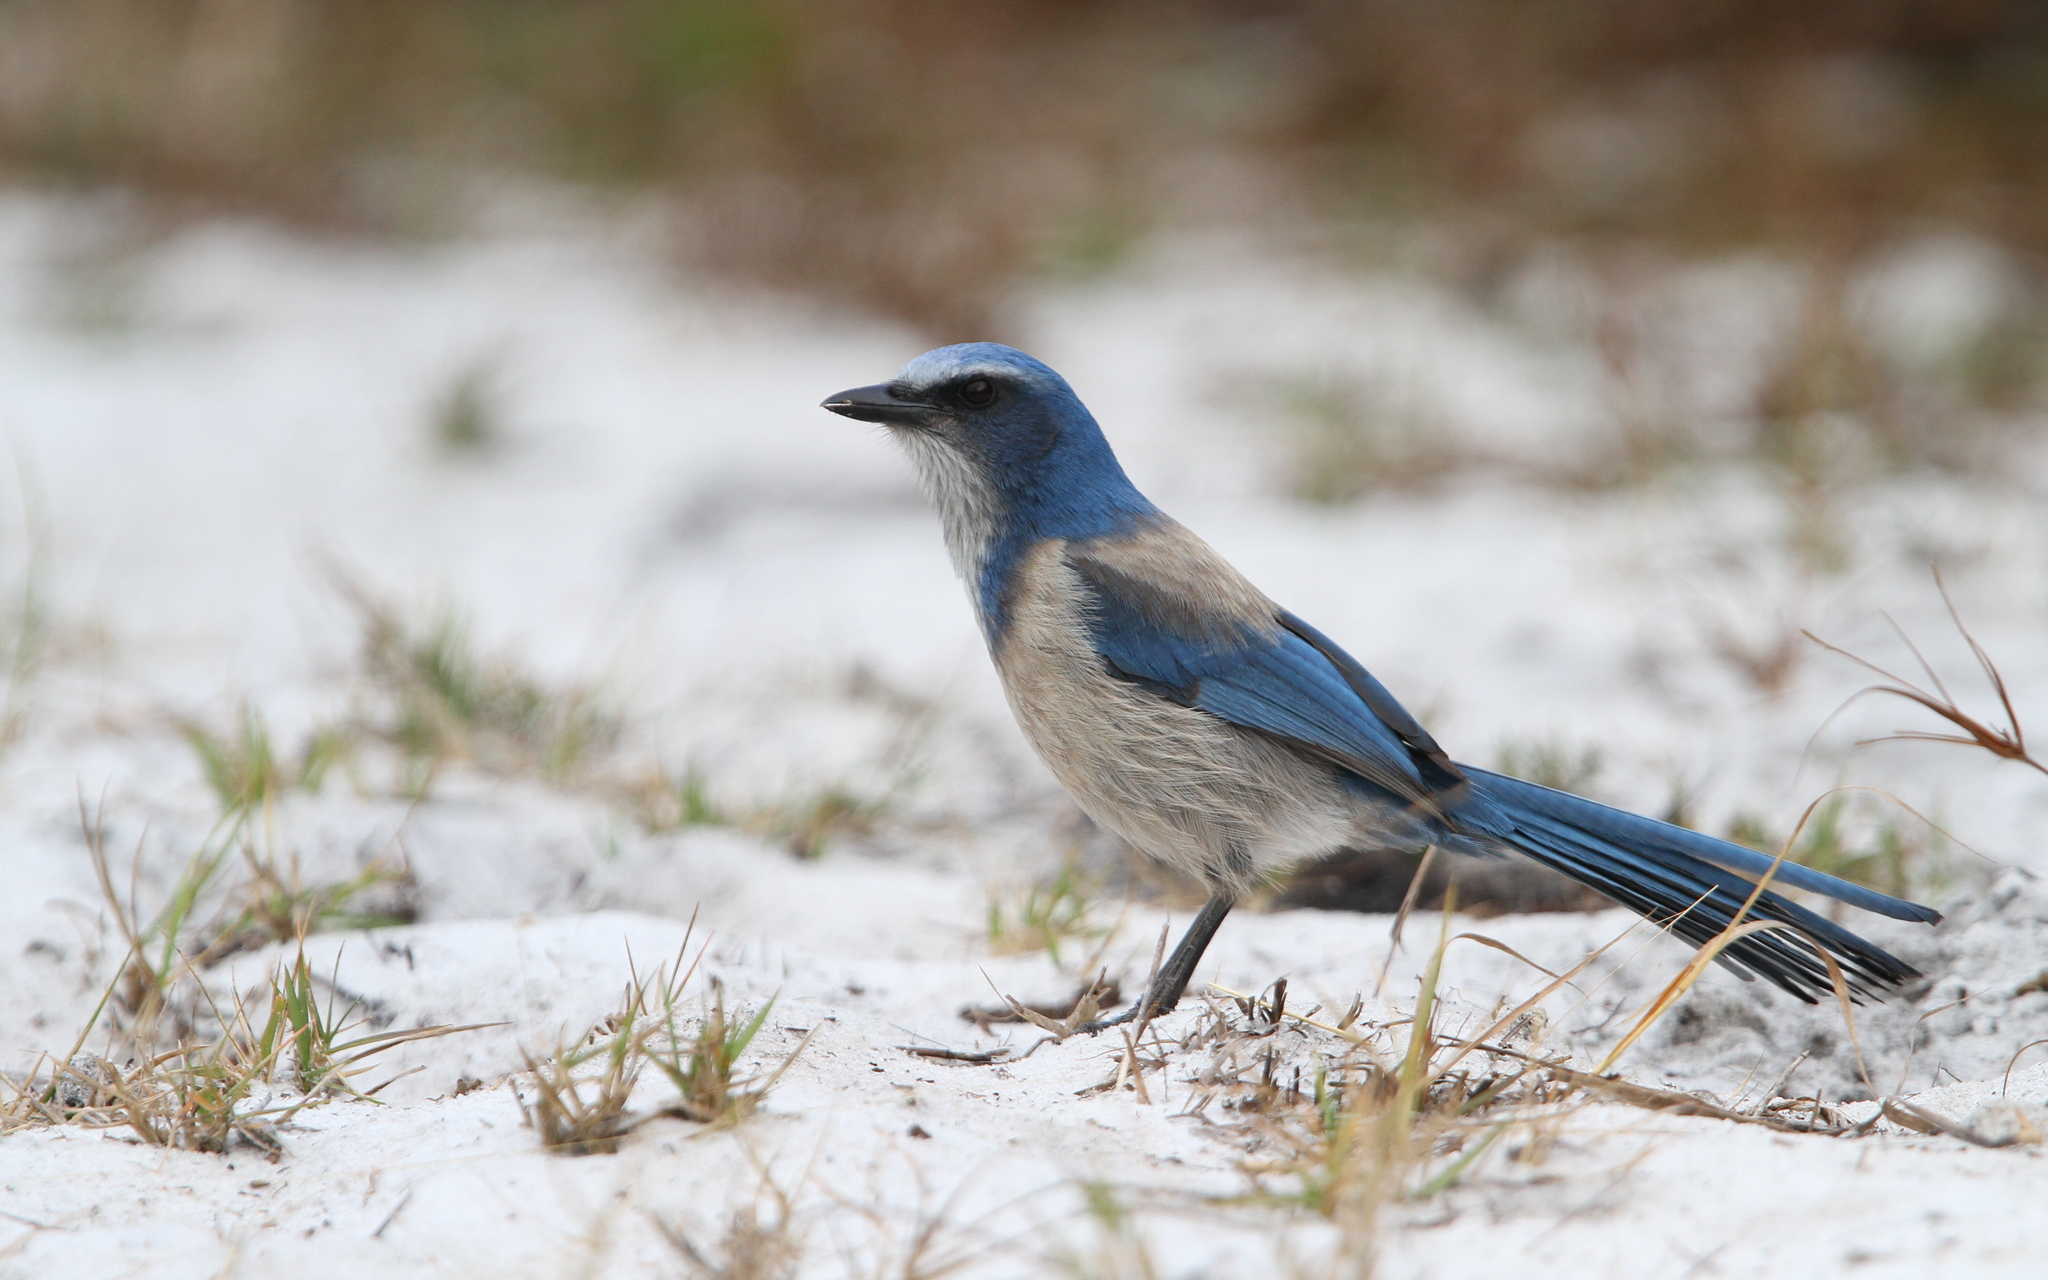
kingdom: Animalia
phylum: Chordata
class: Aves
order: Passeriformes
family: Corvidae
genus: Aphelocoma
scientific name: Aphelocoma coerulescens
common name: Florida scrub jay
